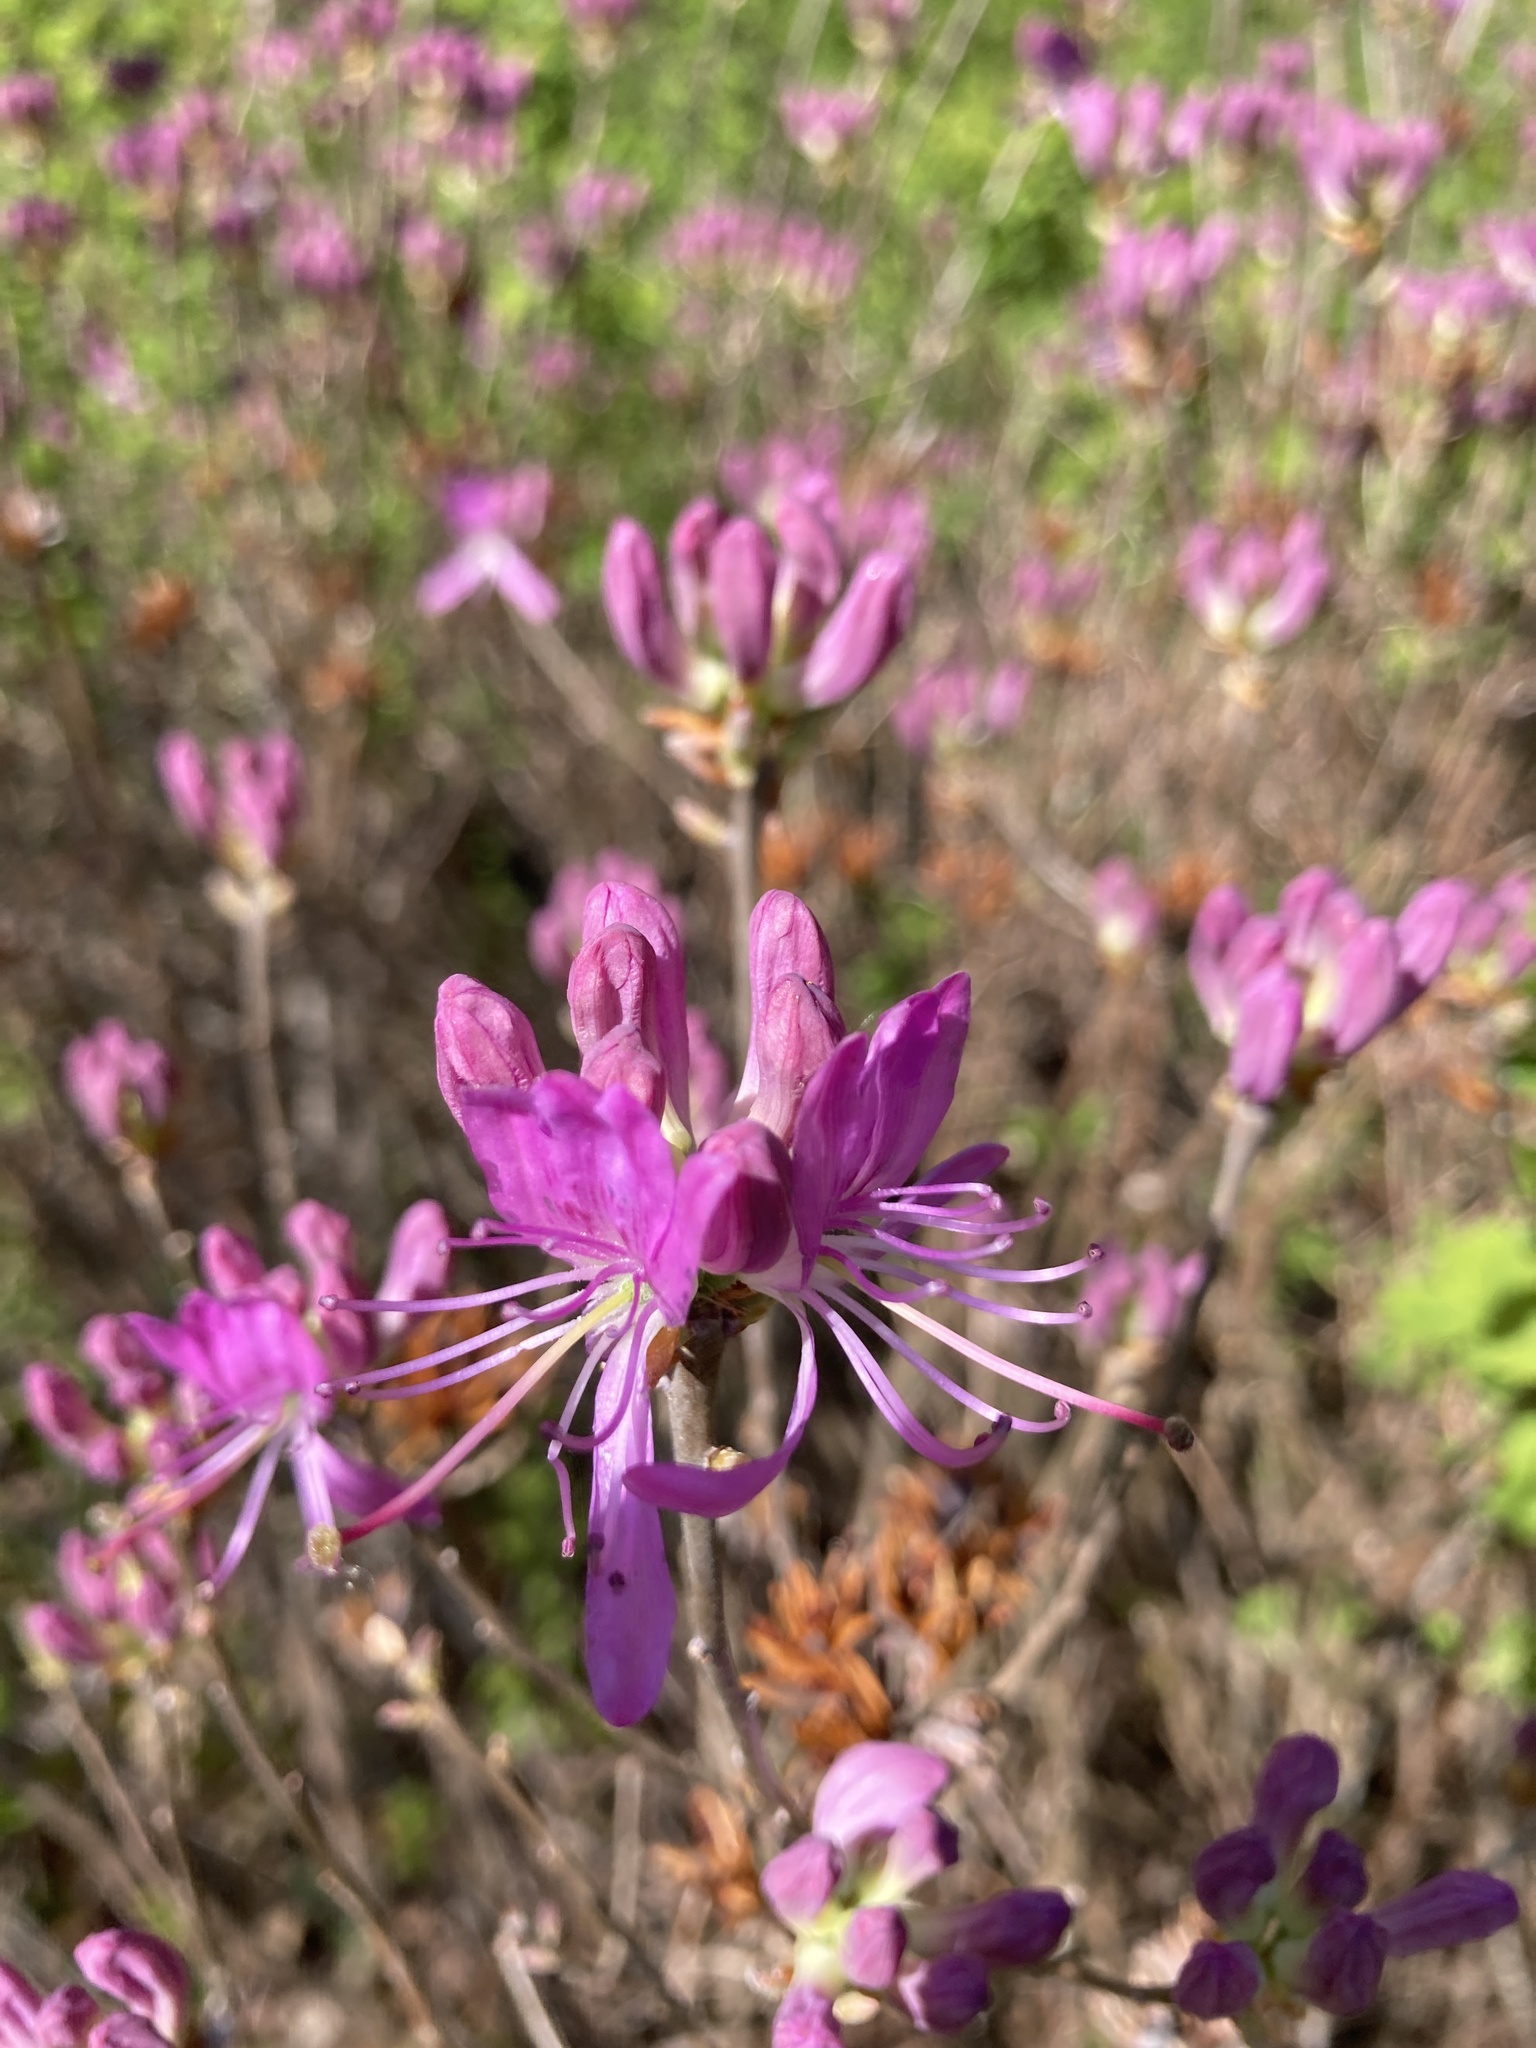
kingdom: Plantae
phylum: Tracheophyta
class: Magnoliopsida
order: Ericales
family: Ericaceae
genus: Rhododendron
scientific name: Rhododendron canadense
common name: Rhodora
